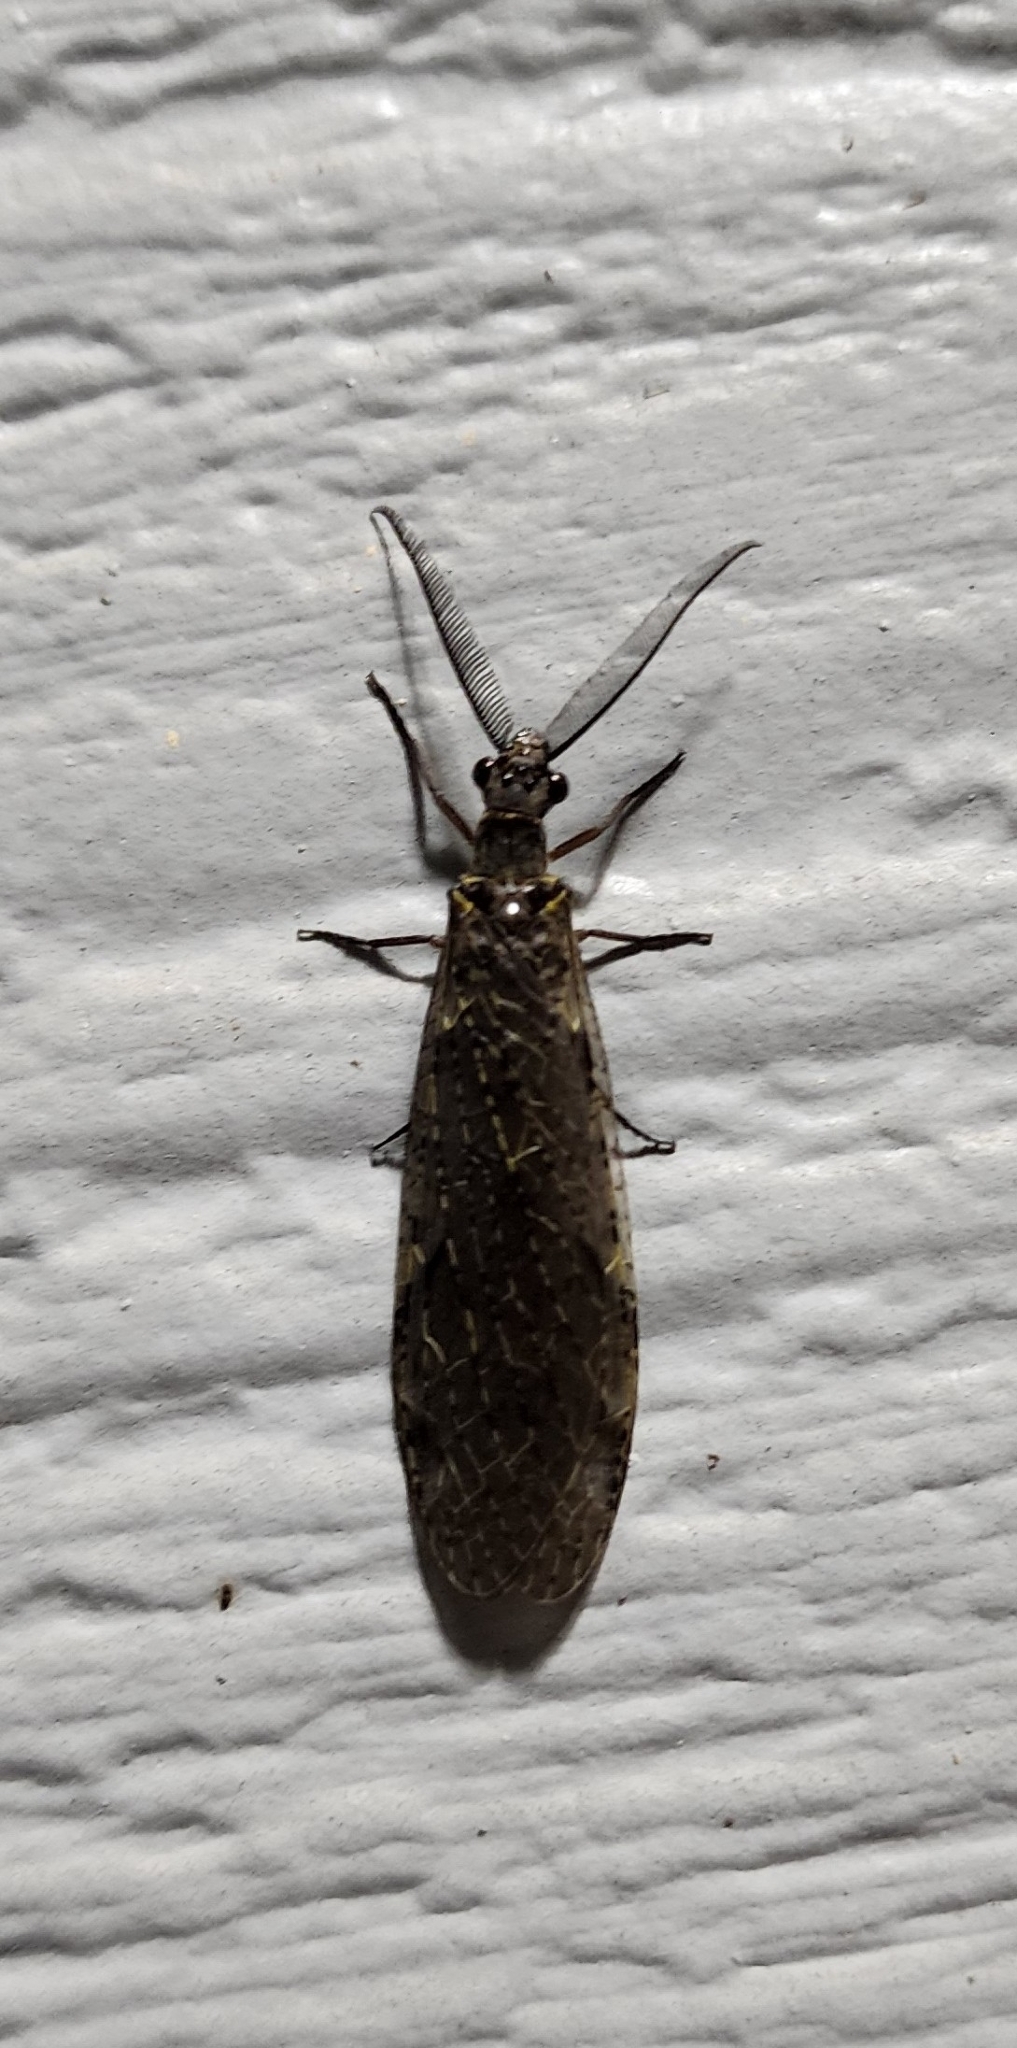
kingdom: Animalia
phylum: Arthropoda
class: Insecta
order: Megaloptera
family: Corydalidae
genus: Chauliodes
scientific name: Chauliodes rastricornis
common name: Spring fishfly
